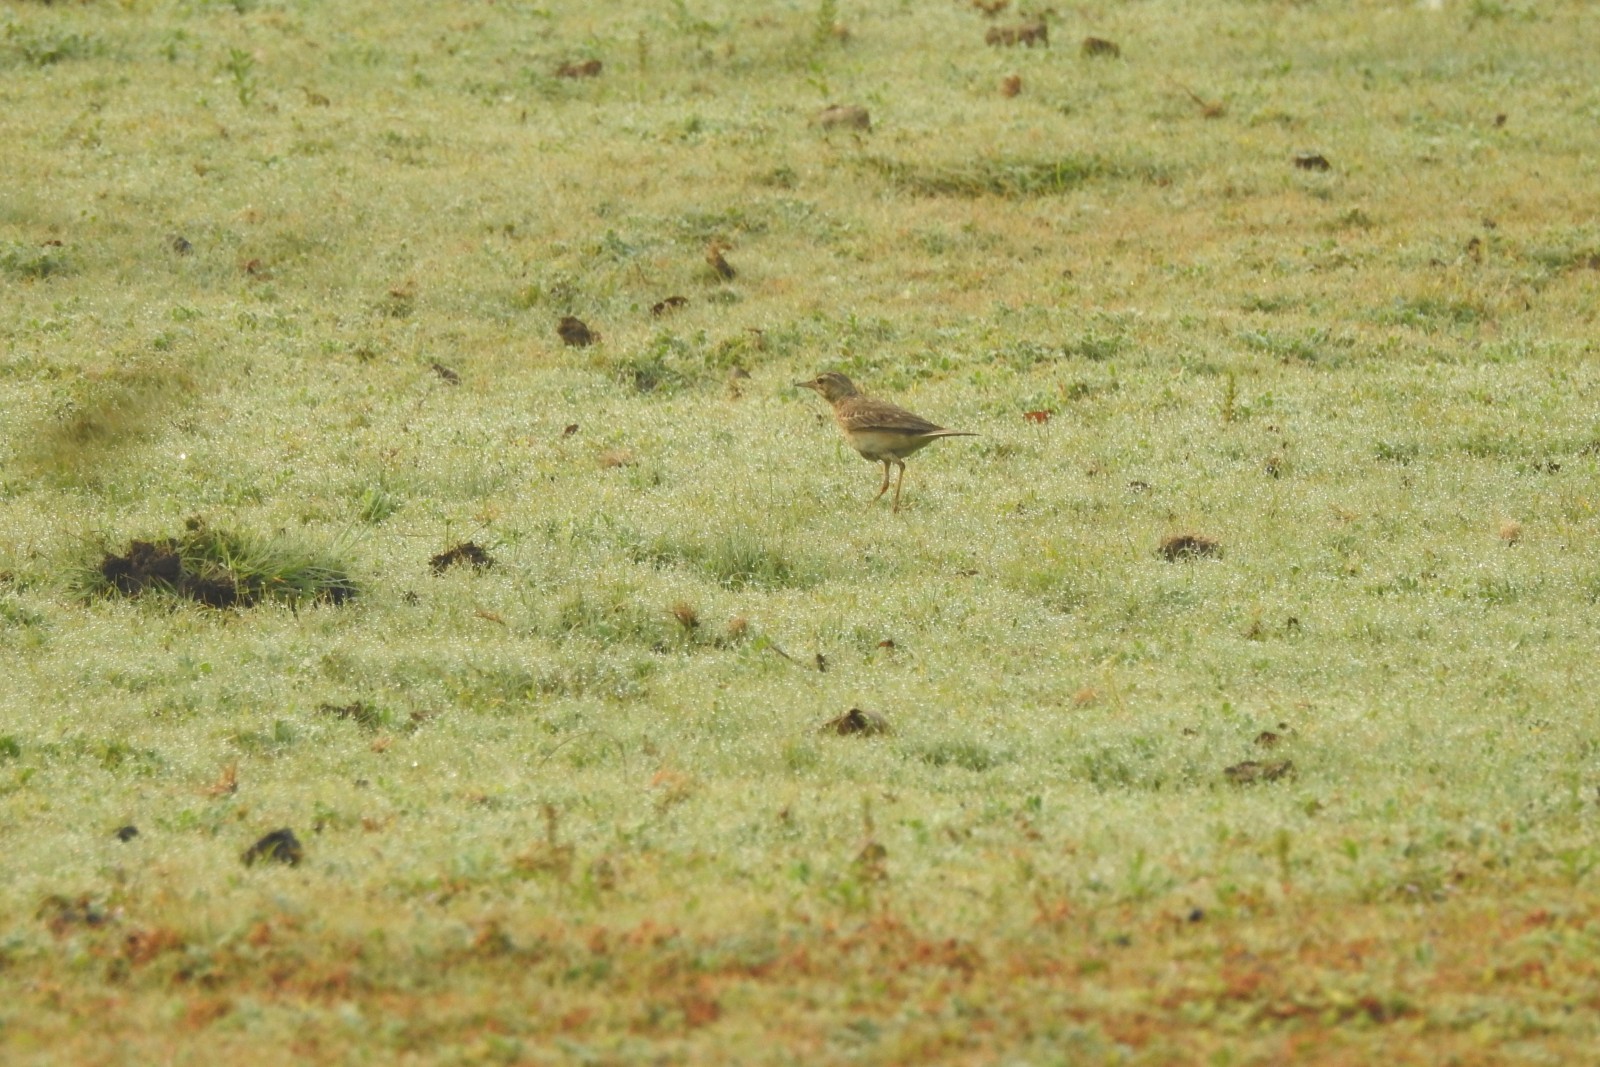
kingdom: Animalia
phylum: Chordata
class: Aves
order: Passeriformes
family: Motacillidae
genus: Anthus
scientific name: Anthus rufulus
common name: Paddyfield pipit
